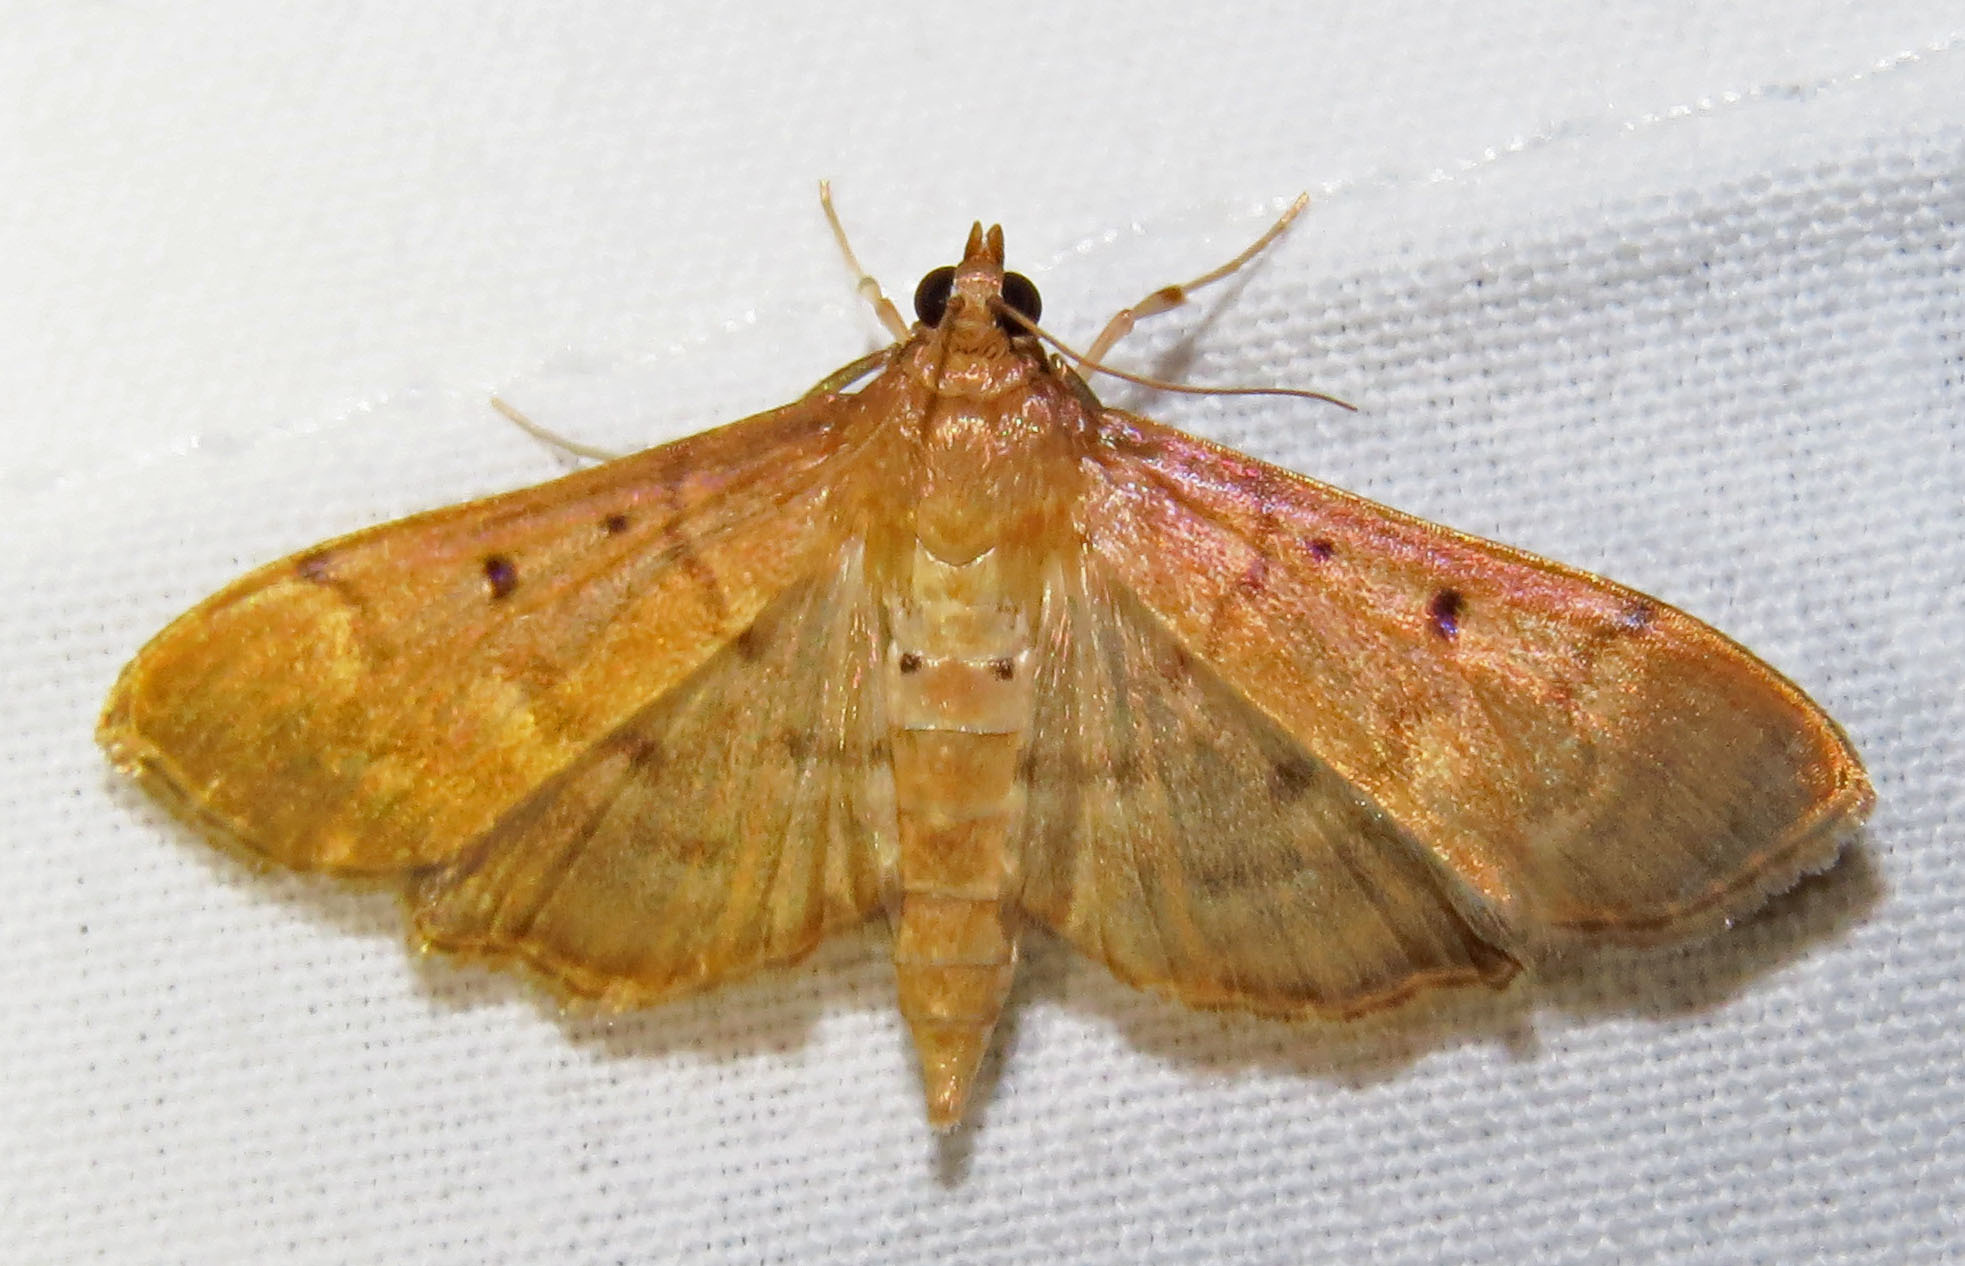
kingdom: Animalia
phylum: Arthropoda
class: Insecta
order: Lepidoptera
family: Crambidae
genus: Herpetogramma
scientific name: Herpetogramma bipunctalis
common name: Southern beet webworm
